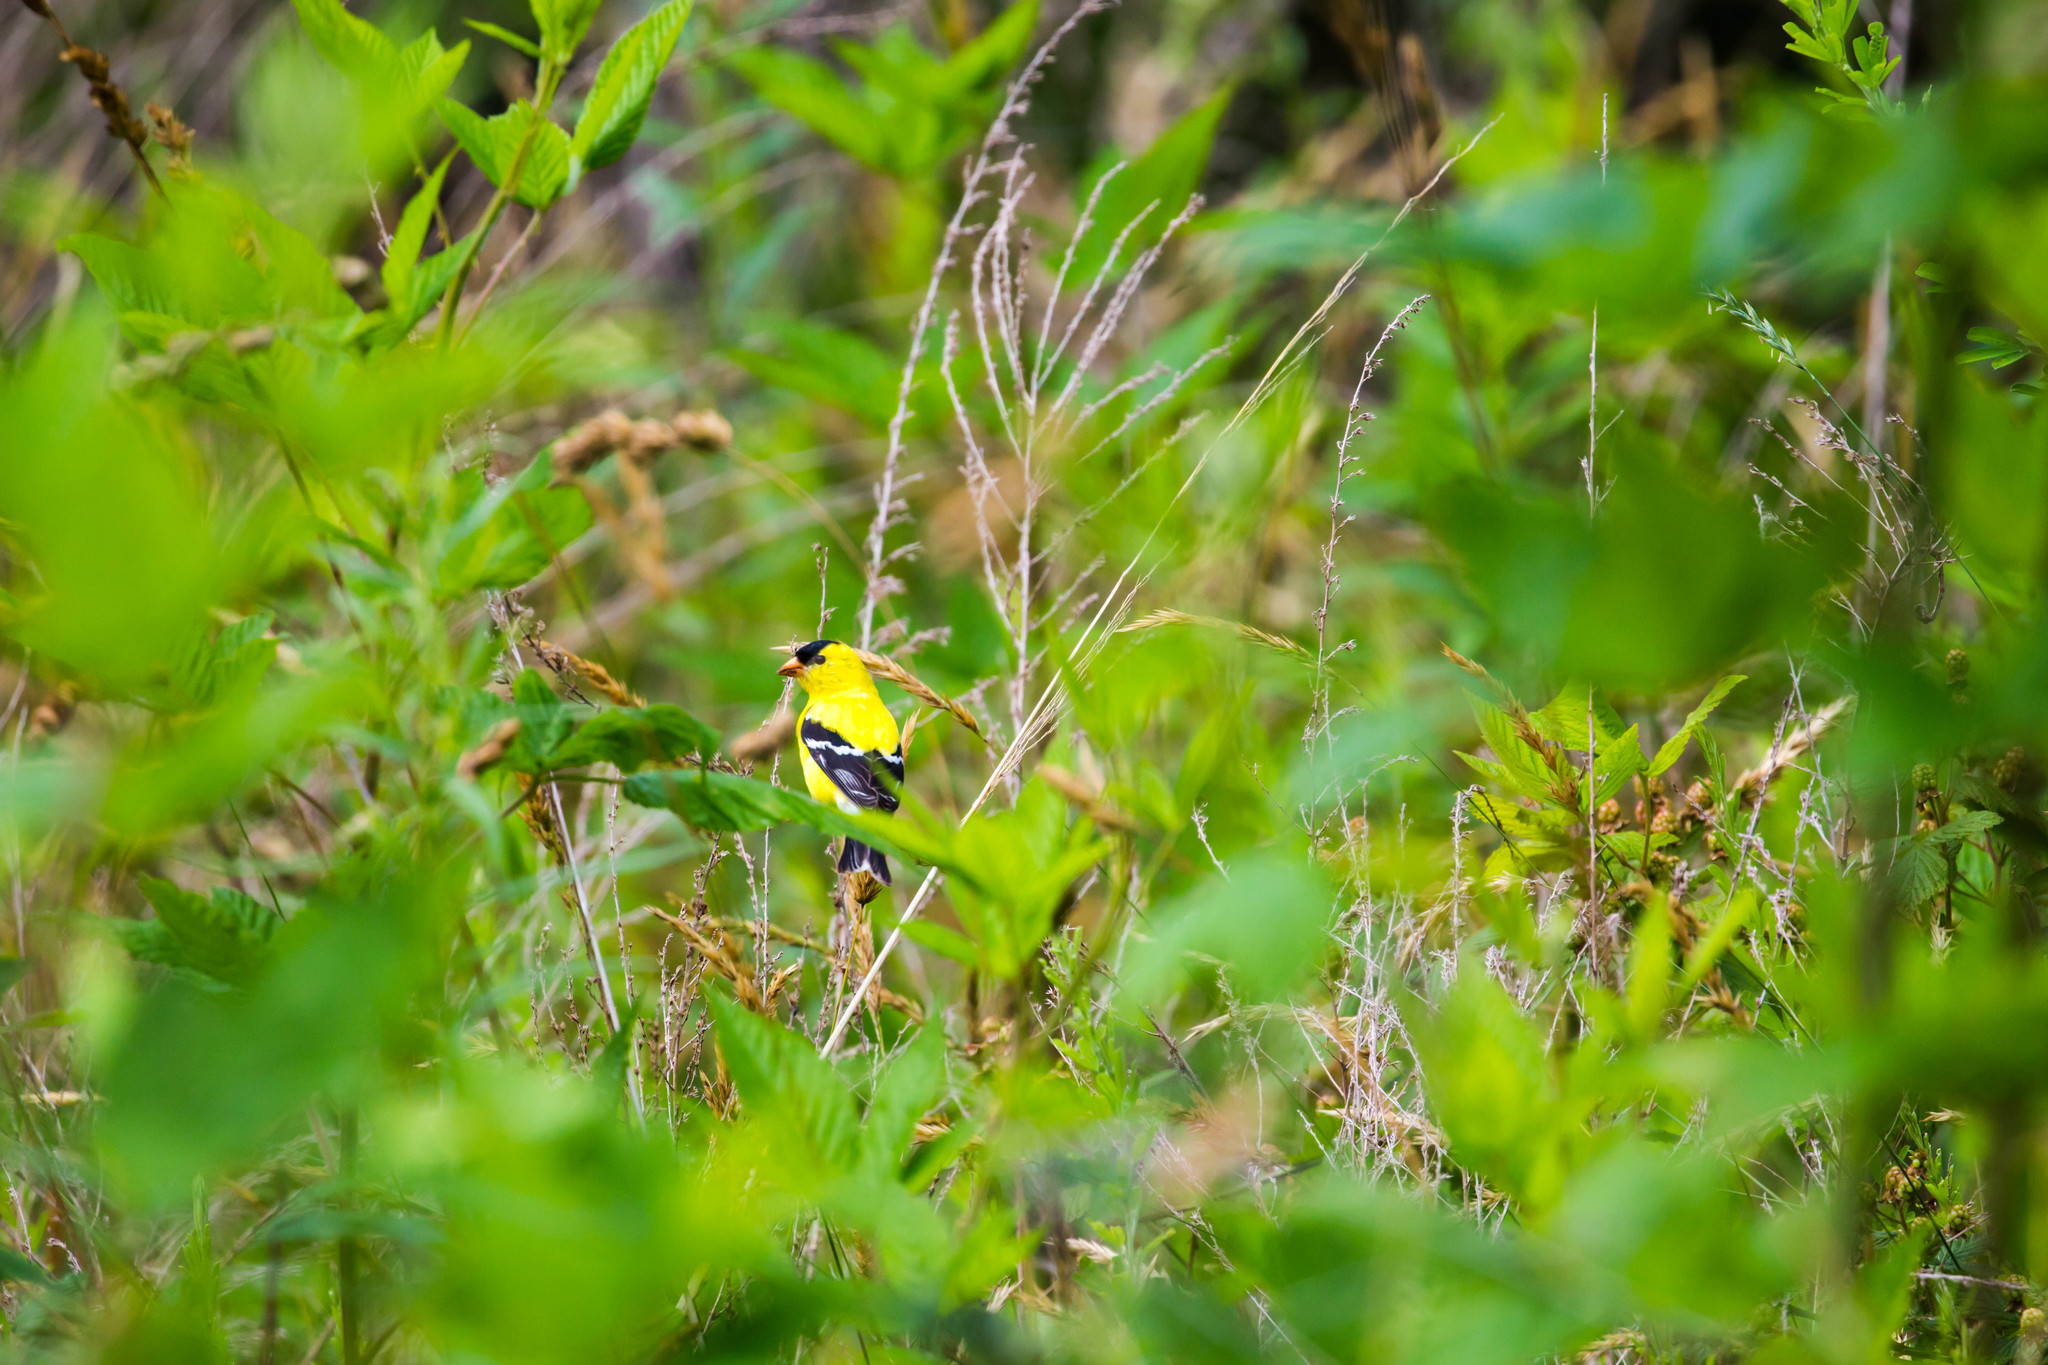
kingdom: Animalia
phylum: Chordata
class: Aves
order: Passeriformes
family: Fringillidae
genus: Spinus
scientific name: Spinus tristis
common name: American goldfinch
